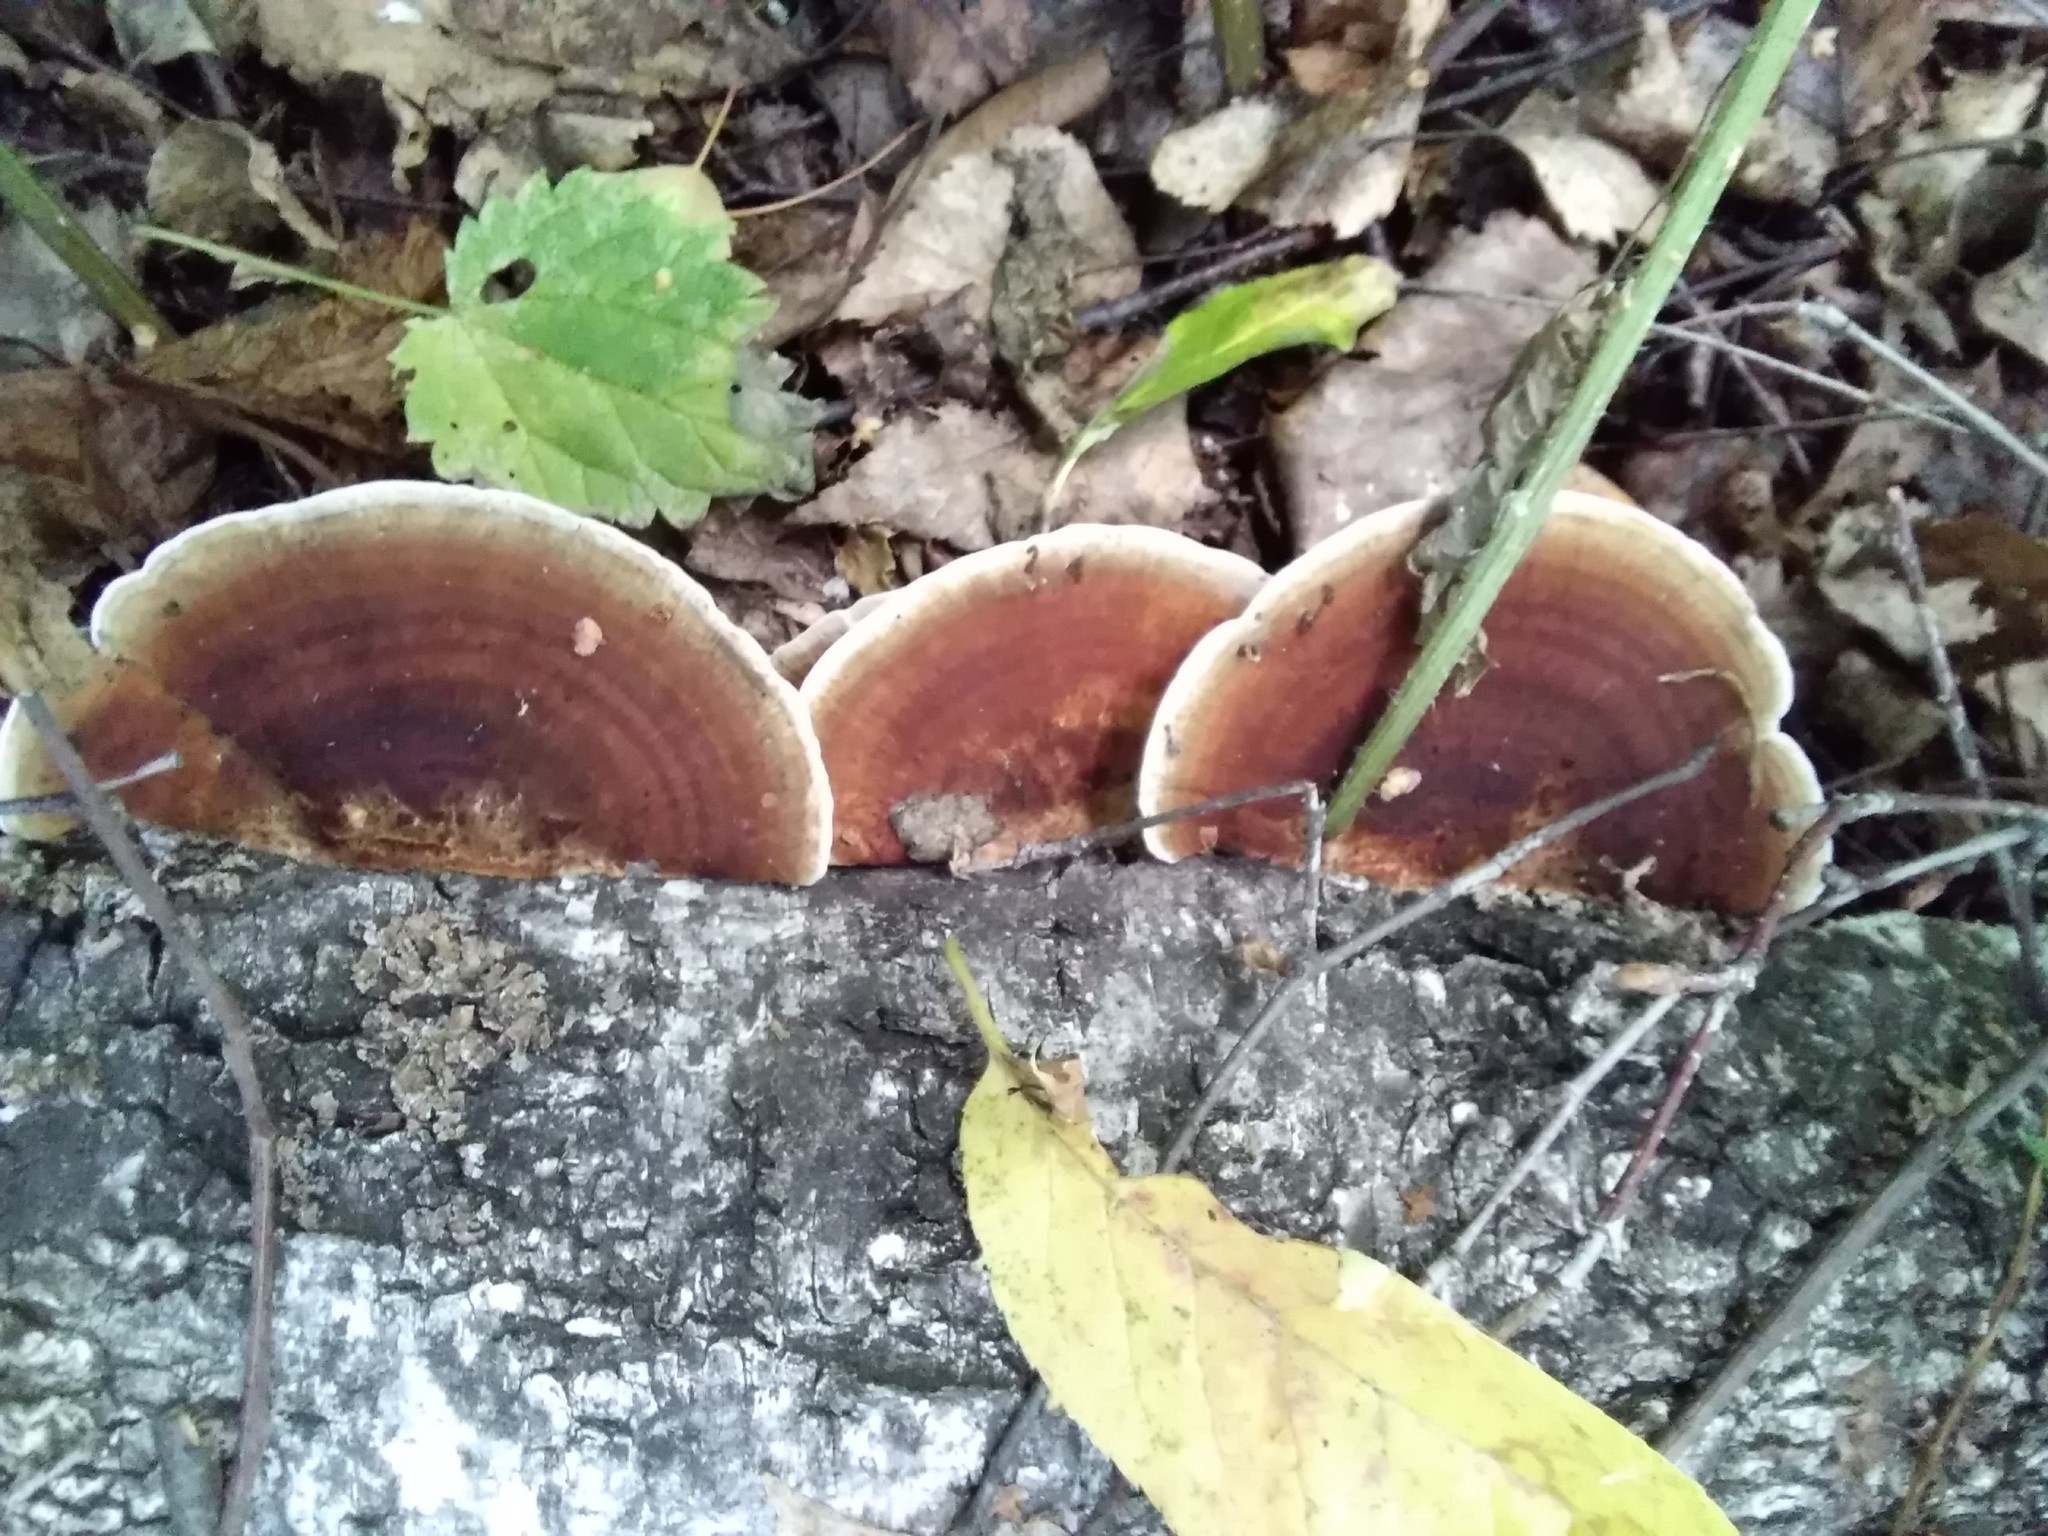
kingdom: Fungi
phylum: Basidiomycota
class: Agaricomycetes
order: Polyporales
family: Polyporaceae
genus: Daedaleopsis
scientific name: Daedaleopsis tricolor
